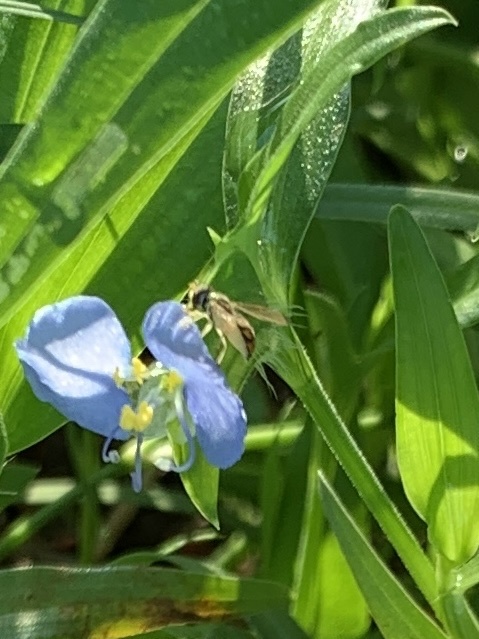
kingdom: Animalia
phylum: Arthropoda
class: Insecta
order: Diptera
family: Syrphidae
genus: Toxomerus
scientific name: Toxomerus marginatus
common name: Syrphid fly
